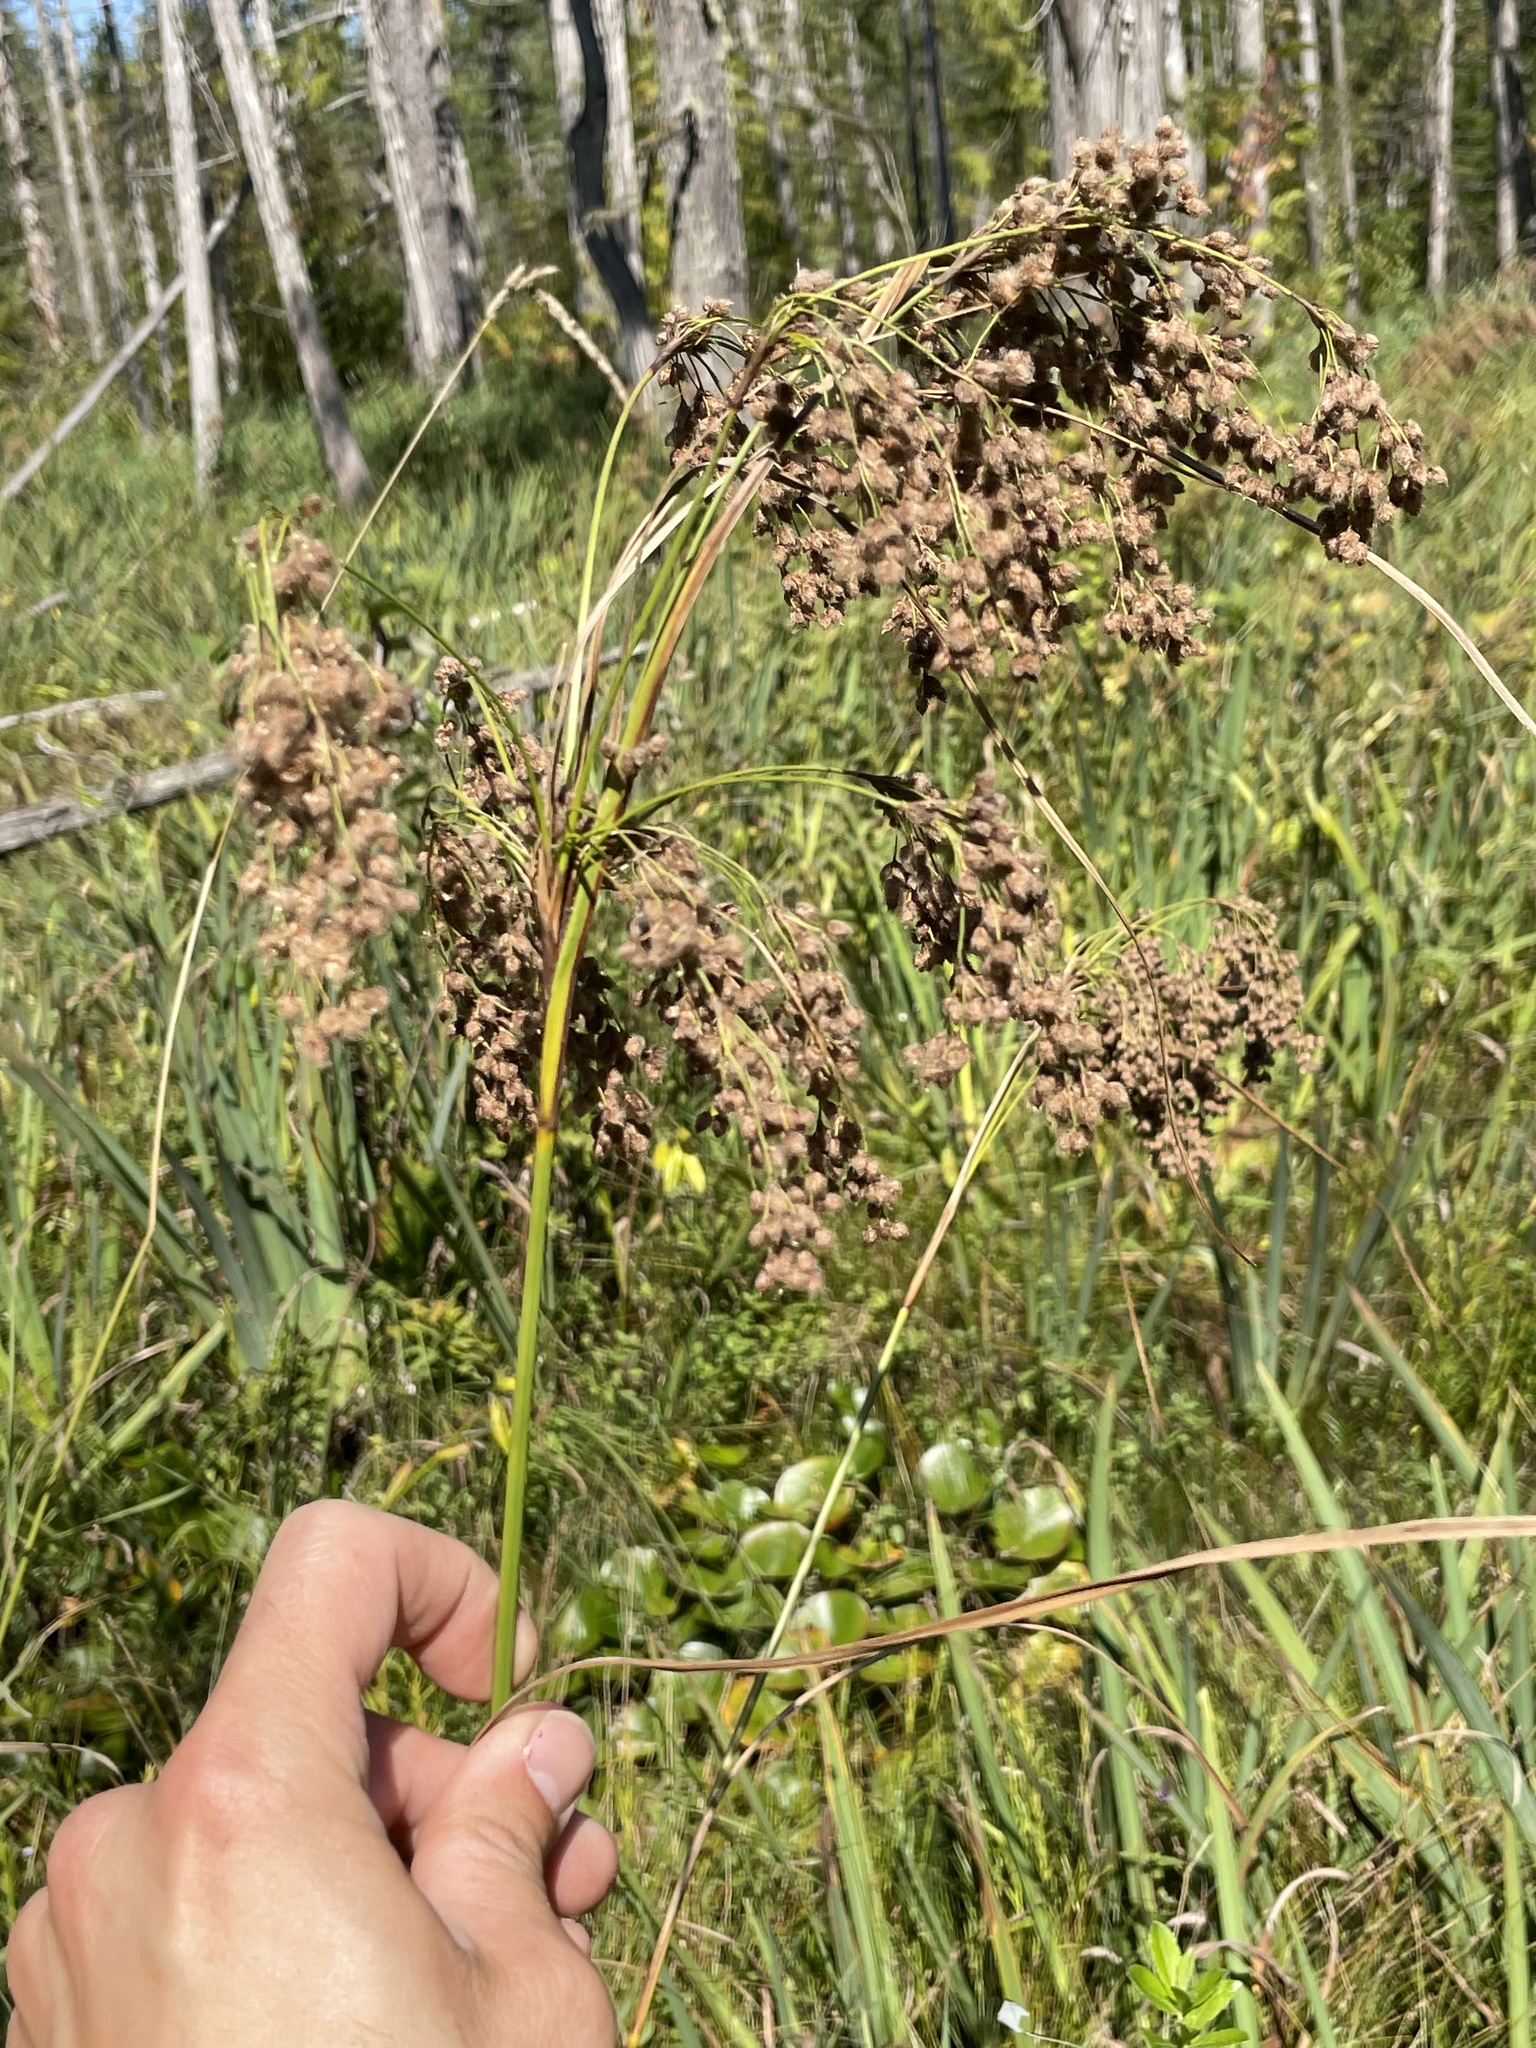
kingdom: Plantae
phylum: Tracheophyta
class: Liliopsida
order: Poales
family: Cyperaceae
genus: Scirpus
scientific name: Scirpus cyperinus
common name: Black-sheathed bulrush
